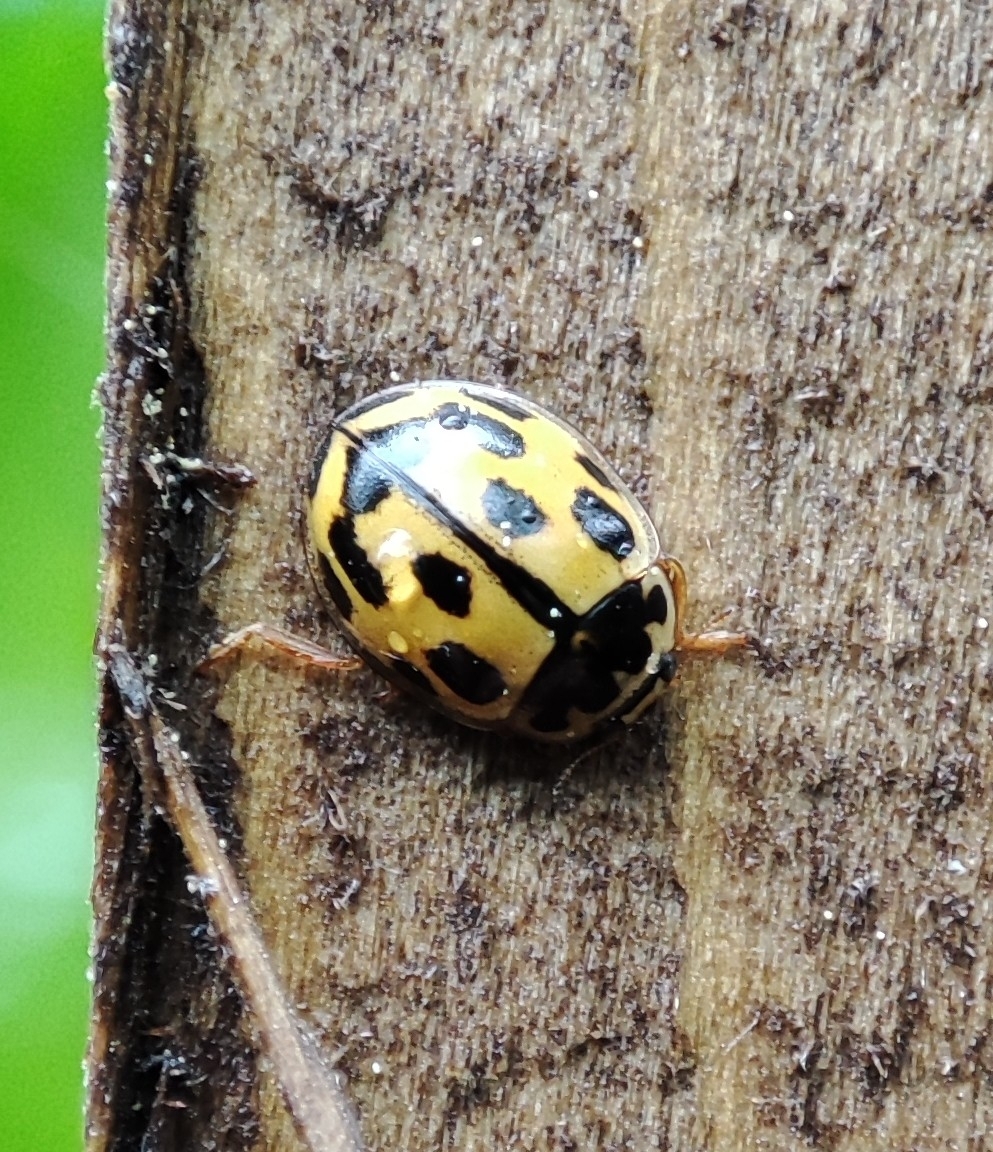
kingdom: Animalia
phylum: Arthropoda
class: Insecta
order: Coleoptera
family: Coccinellidae
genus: Propylaea
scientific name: Propylaea quatuordecimpunctata
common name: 14-spotted ladybird beetle
